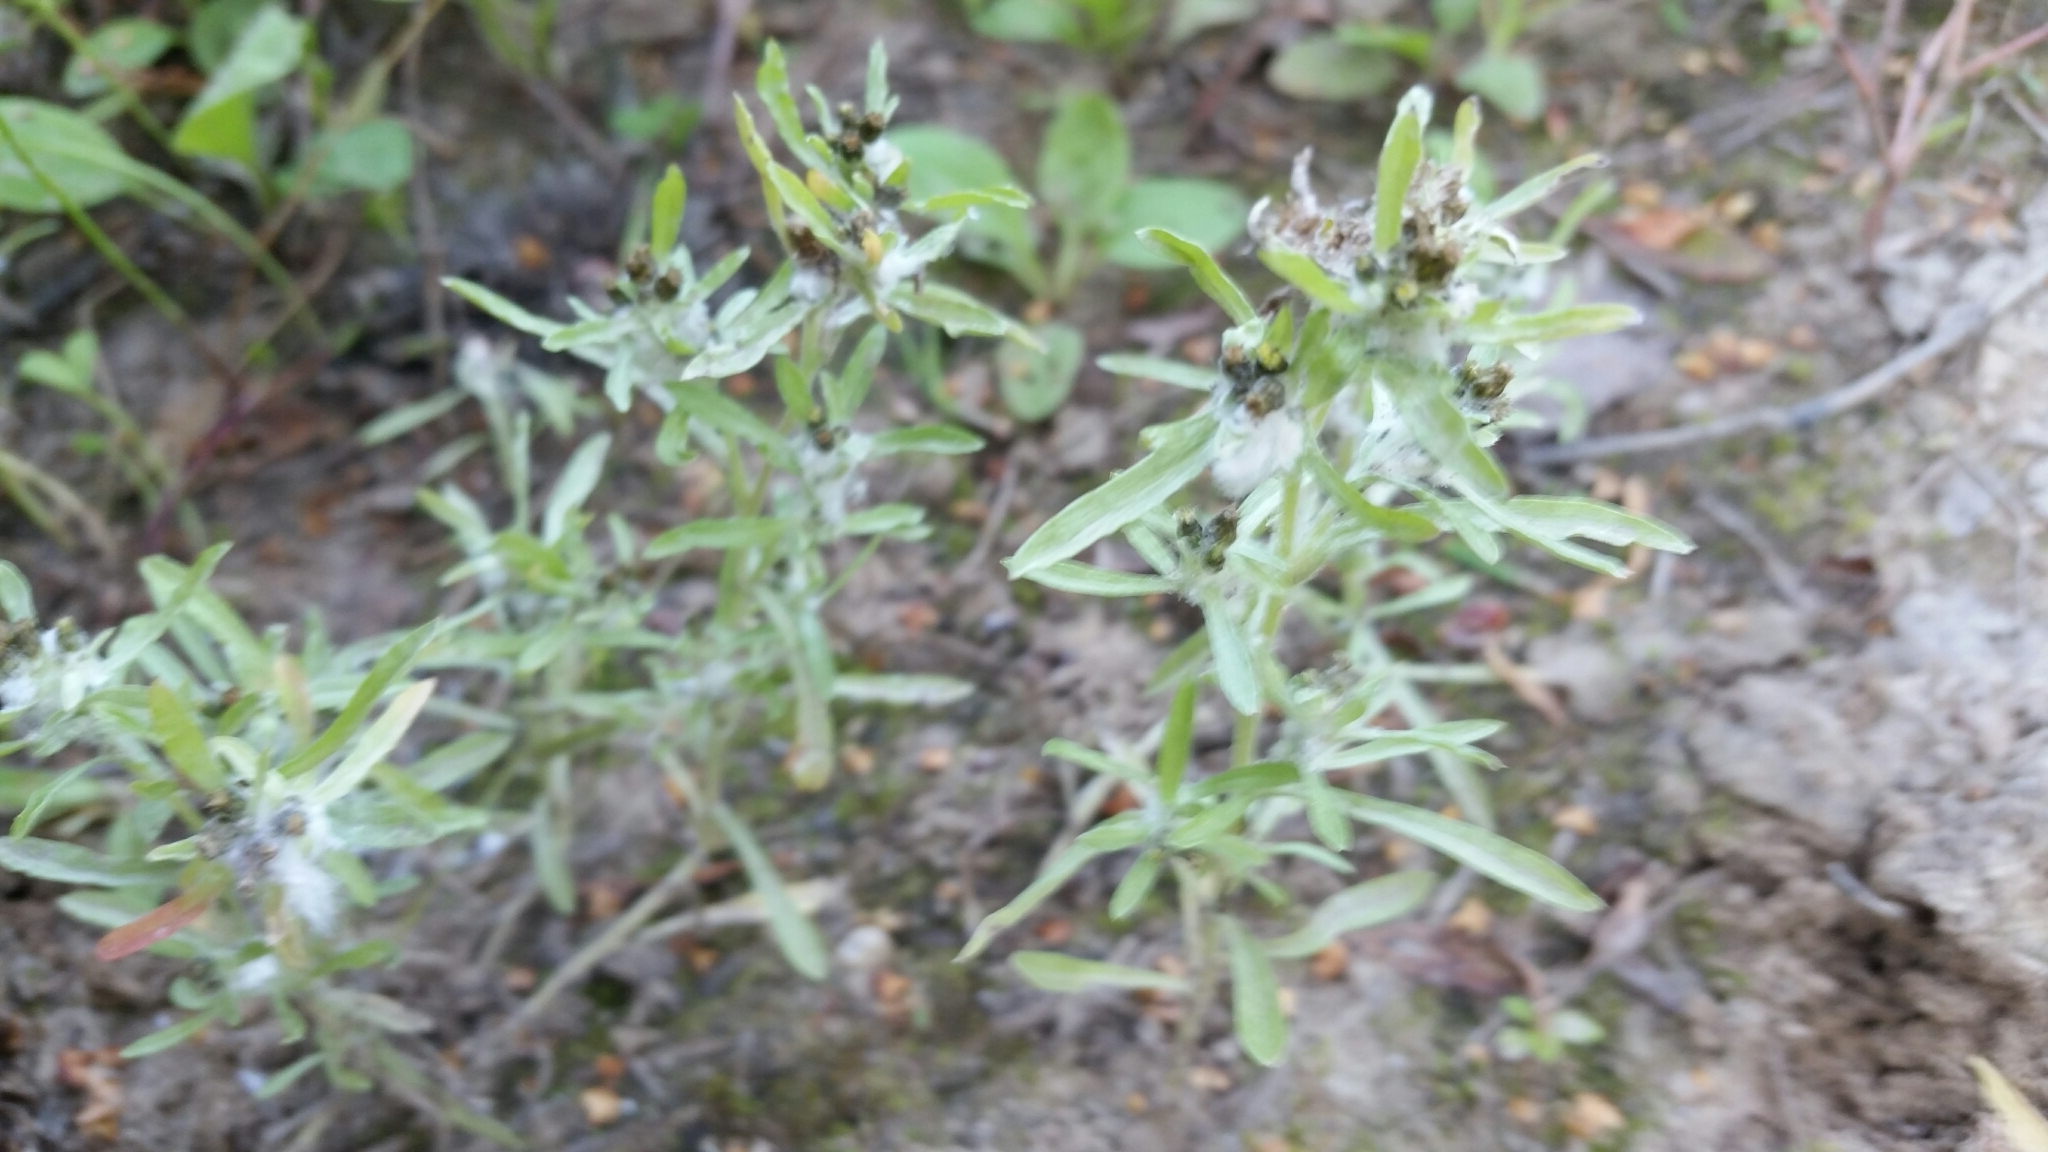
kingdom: Plantae
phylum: Tracheophyta
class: Magnoliopsida
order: Asterales
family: Asteraceae
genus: Gnaphalium
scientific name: Gnaphalium uliginosum
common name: Marsh cudweed
